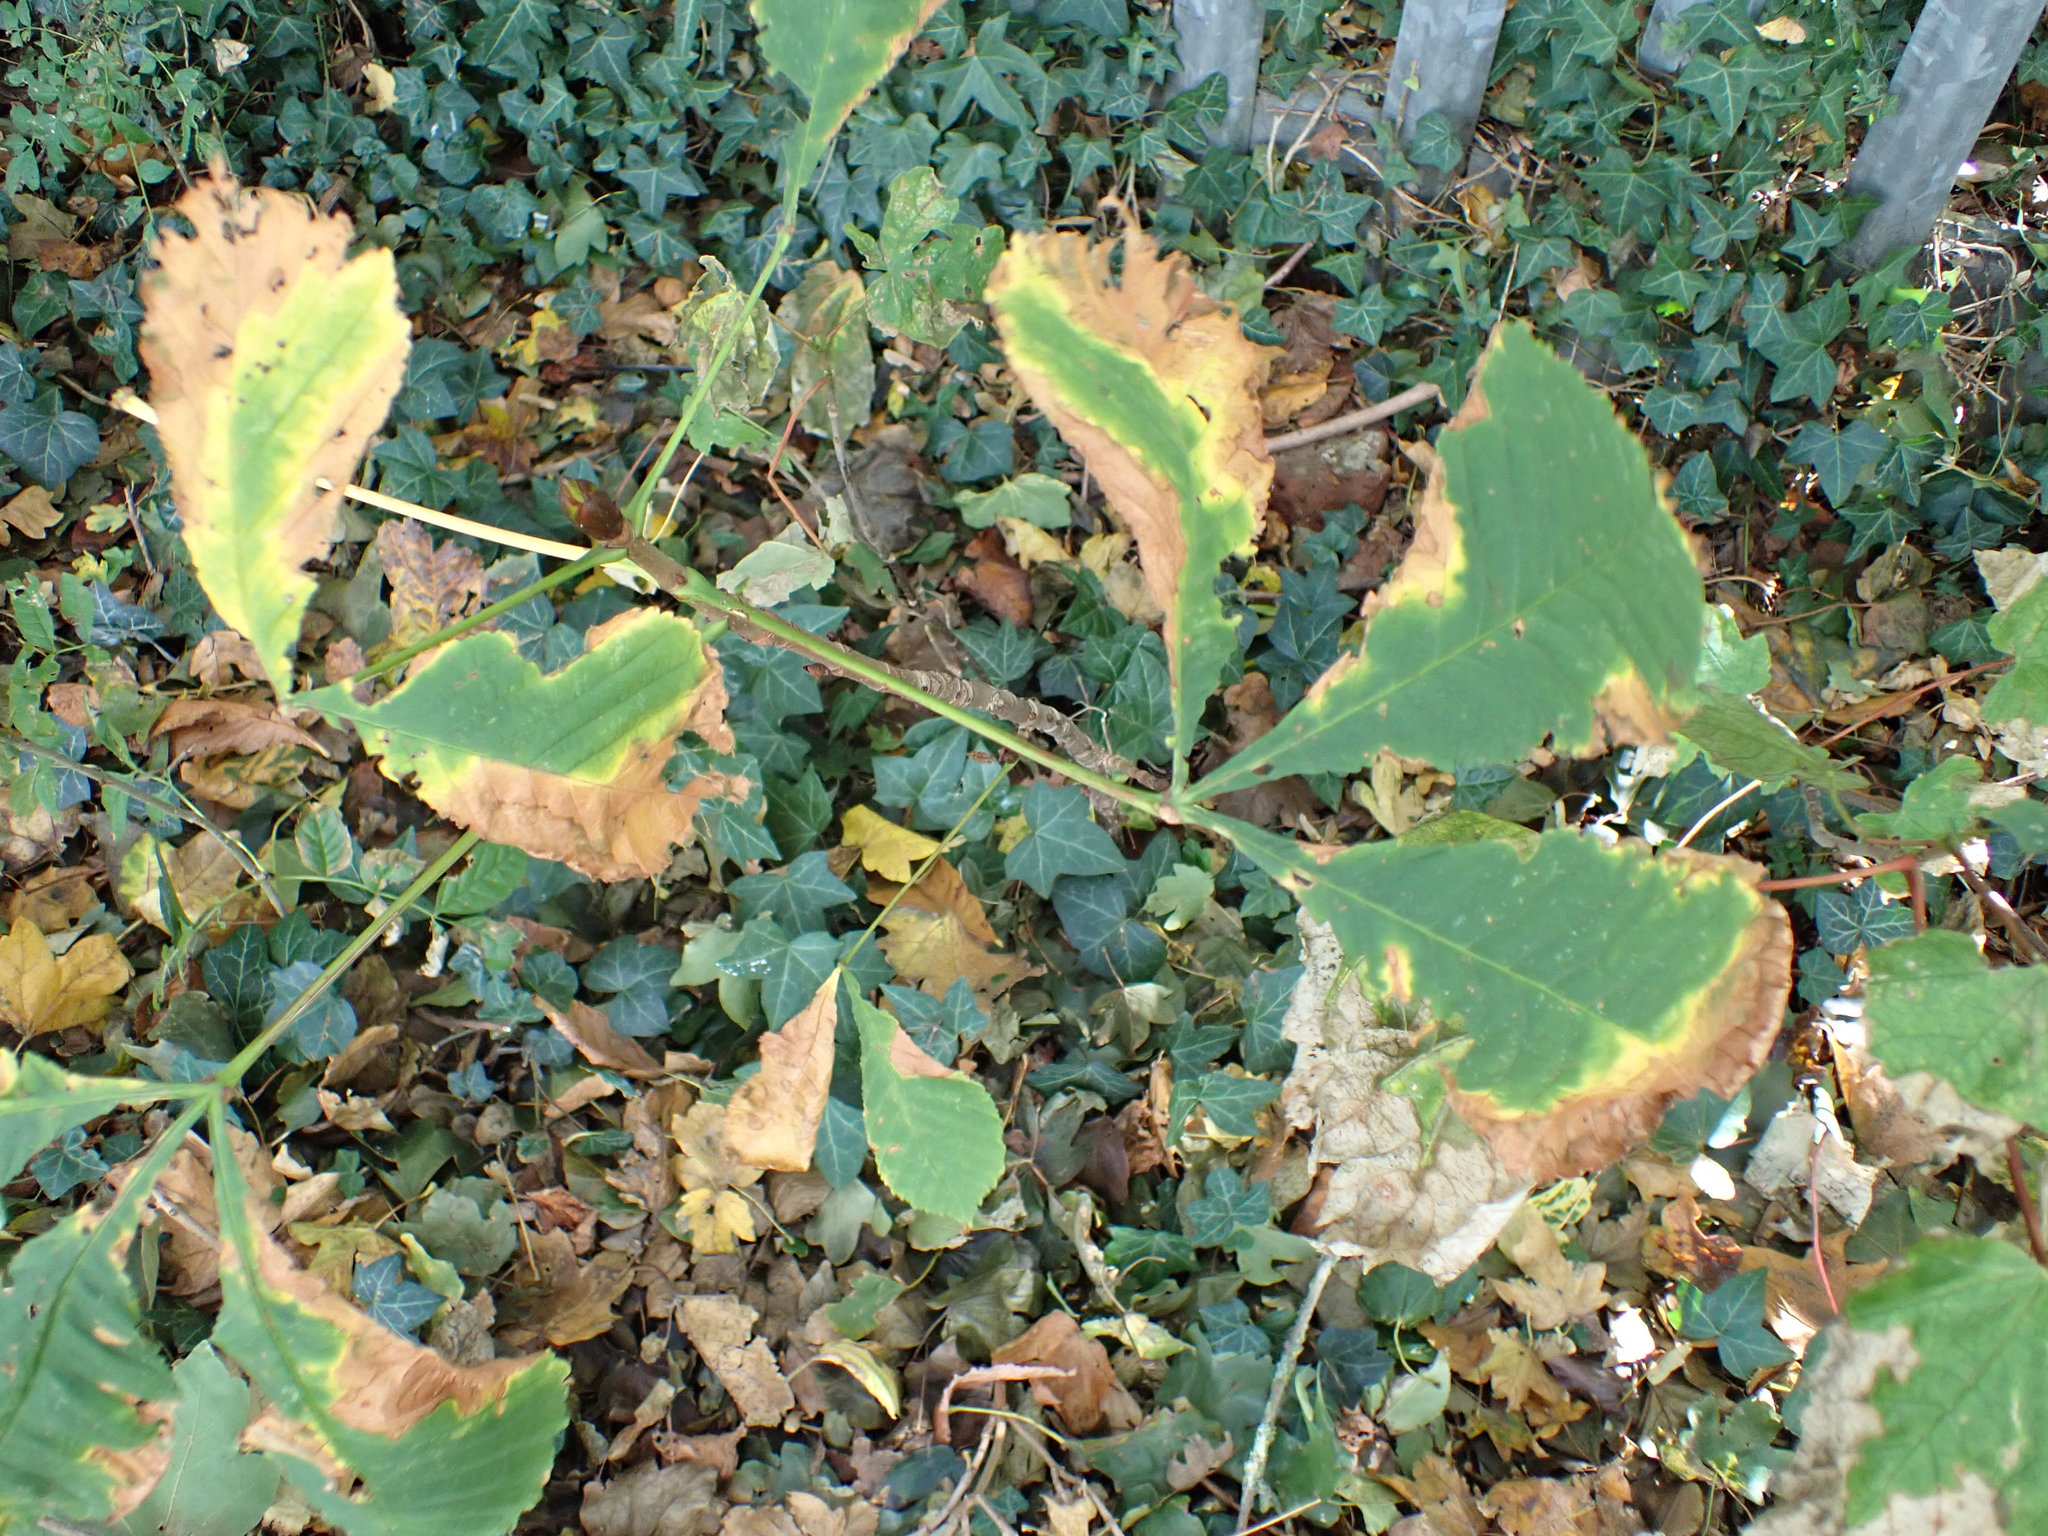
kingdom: Plantae
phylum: Tracheophyta
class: Magnoliopsida
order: Sapindales
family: Sapindaceae
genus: Aesculus
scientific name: Aesculus hippocastanum
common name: Horse-chestnut
